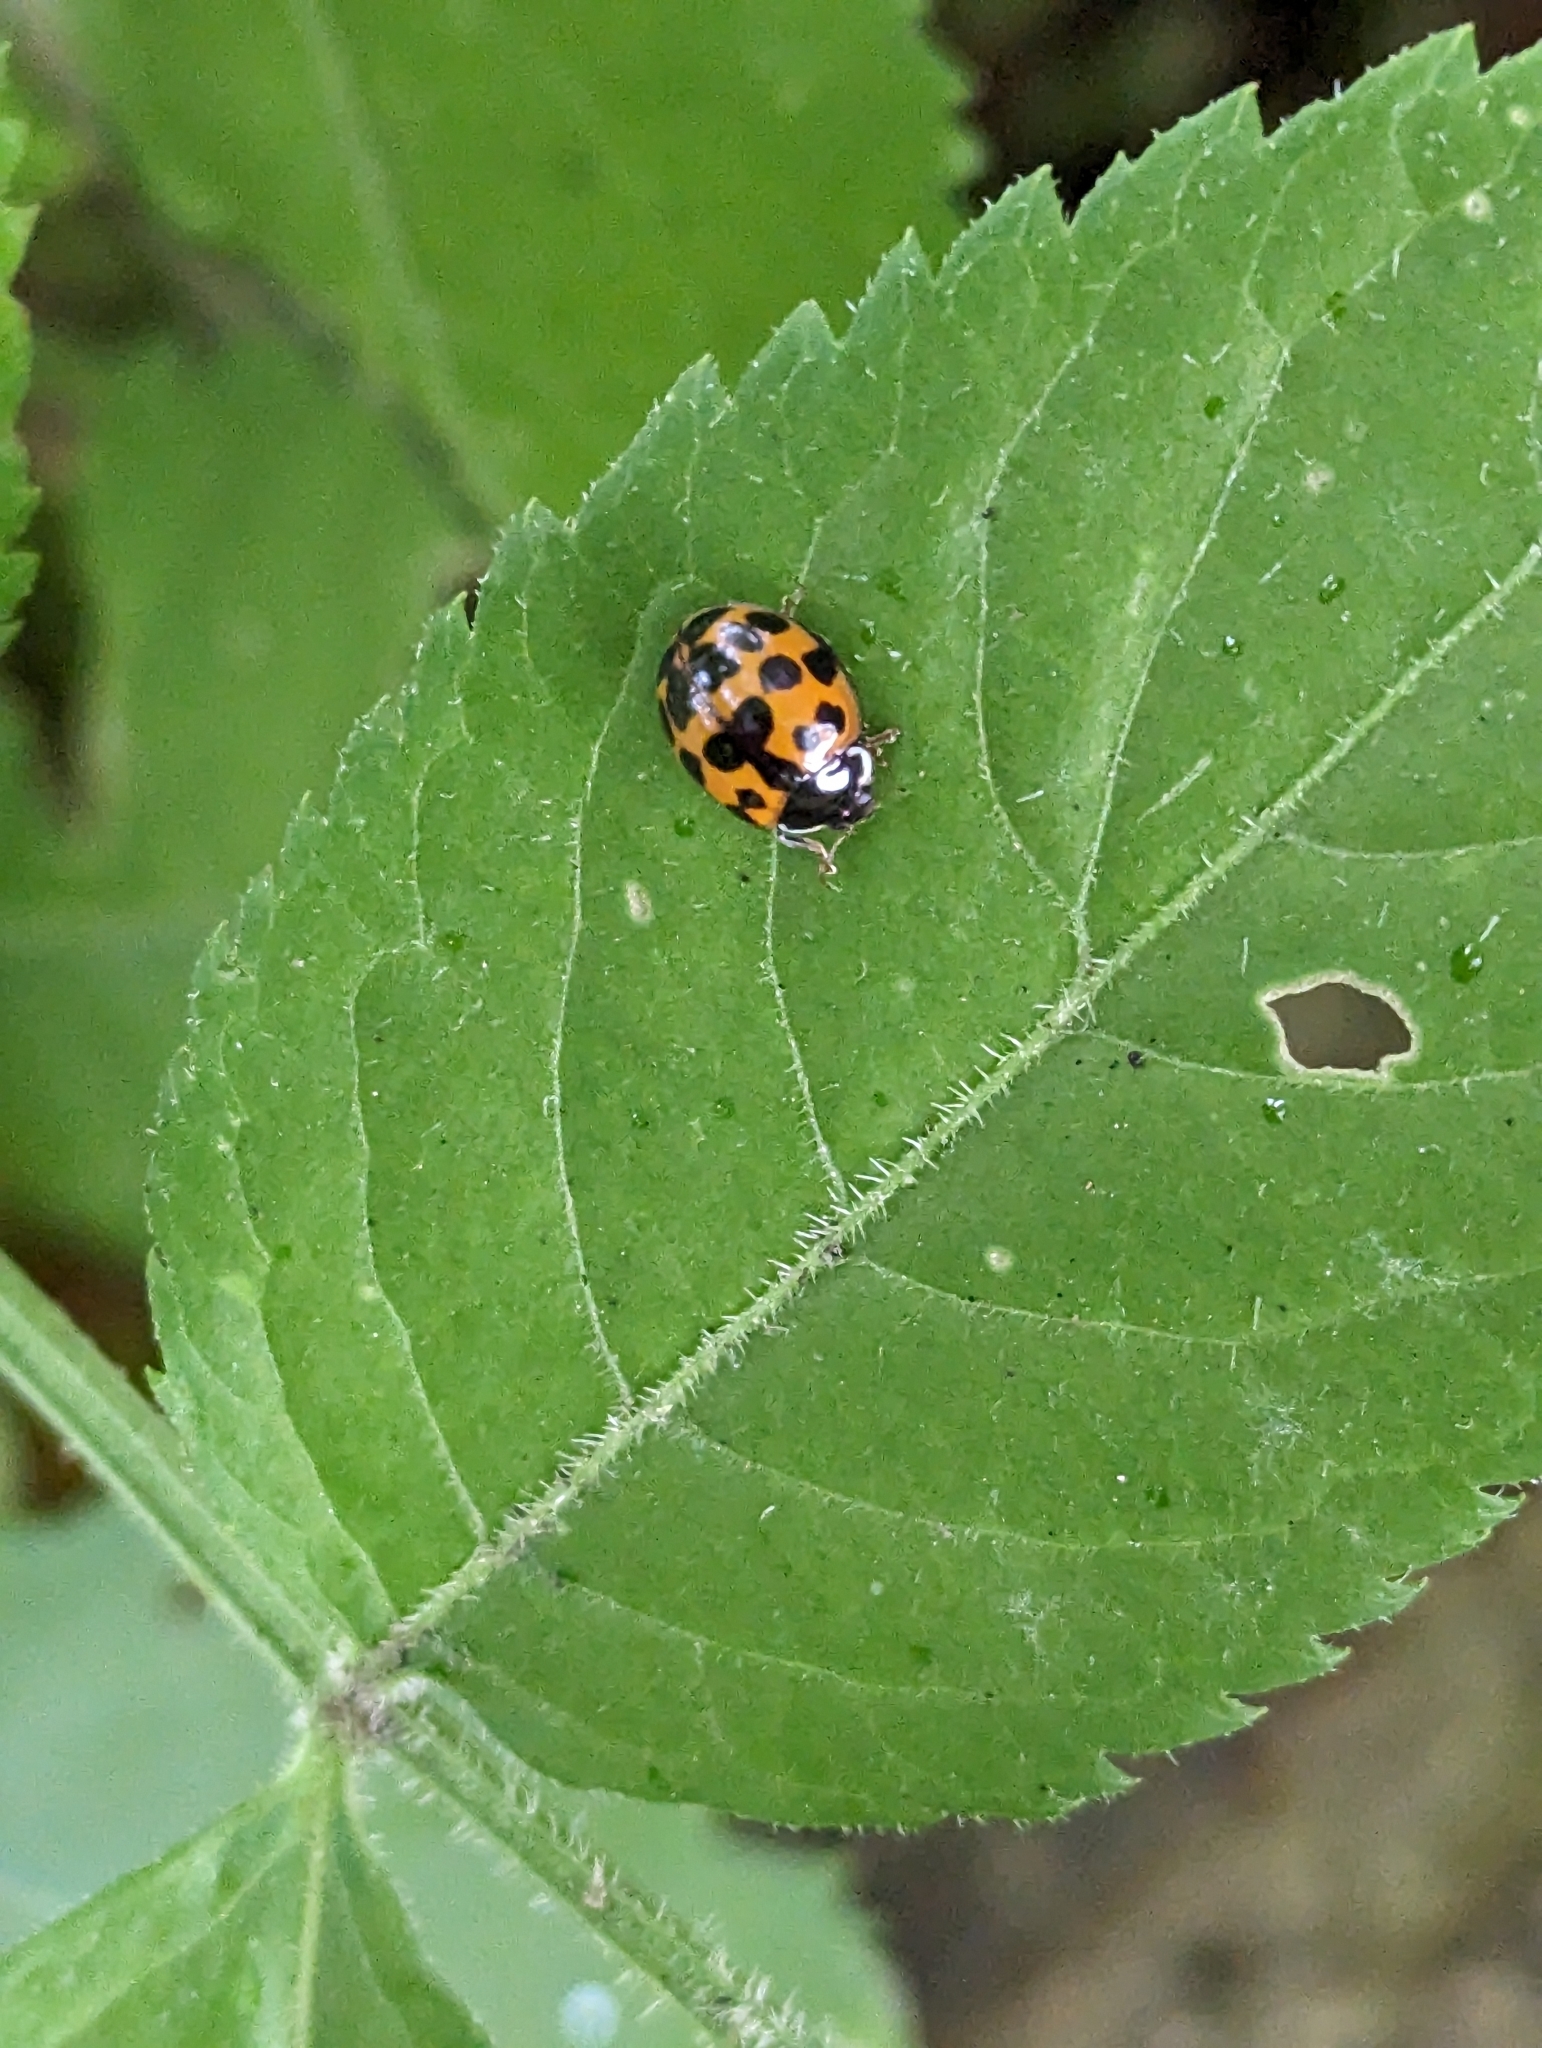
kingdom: Animalia
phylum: Arthropoda
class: Insecta
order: Coleoptera
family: Coccinellidae
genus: Harmonia
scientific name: Harmonia axyridis
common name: Harlequin ladybird
